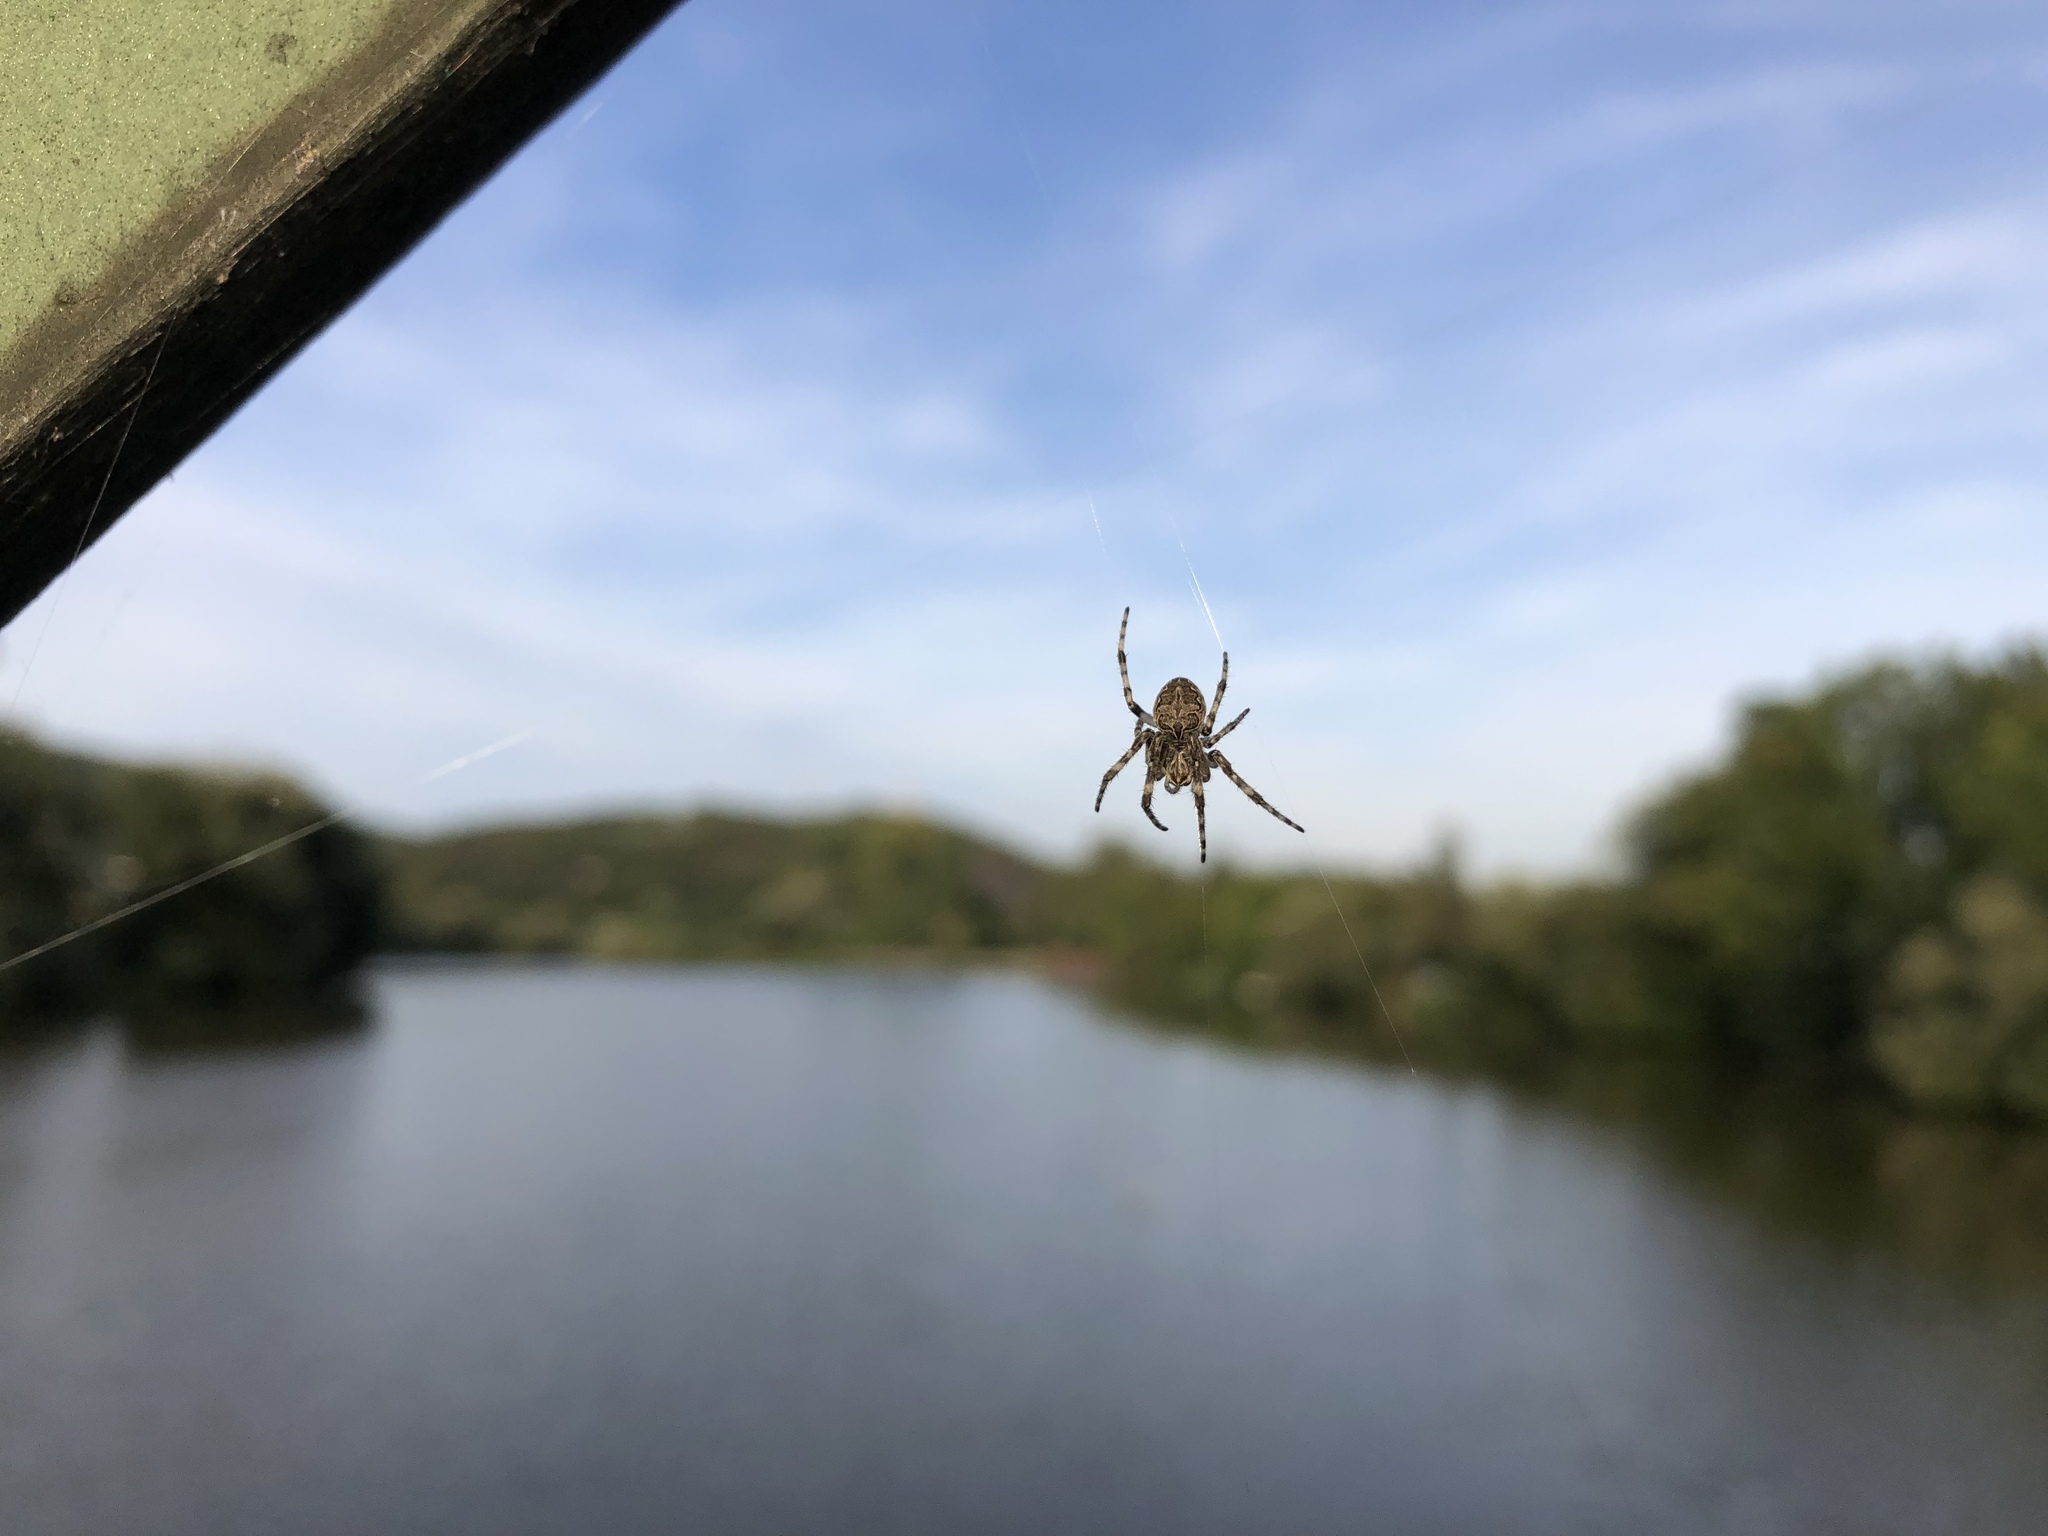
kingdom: Animalia
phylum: Arthropoda
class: Arachnida
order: Araneae
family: Araneidae
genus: Larinioides
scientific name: Larinioides sclopetarius
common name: Bridge orbweaver
